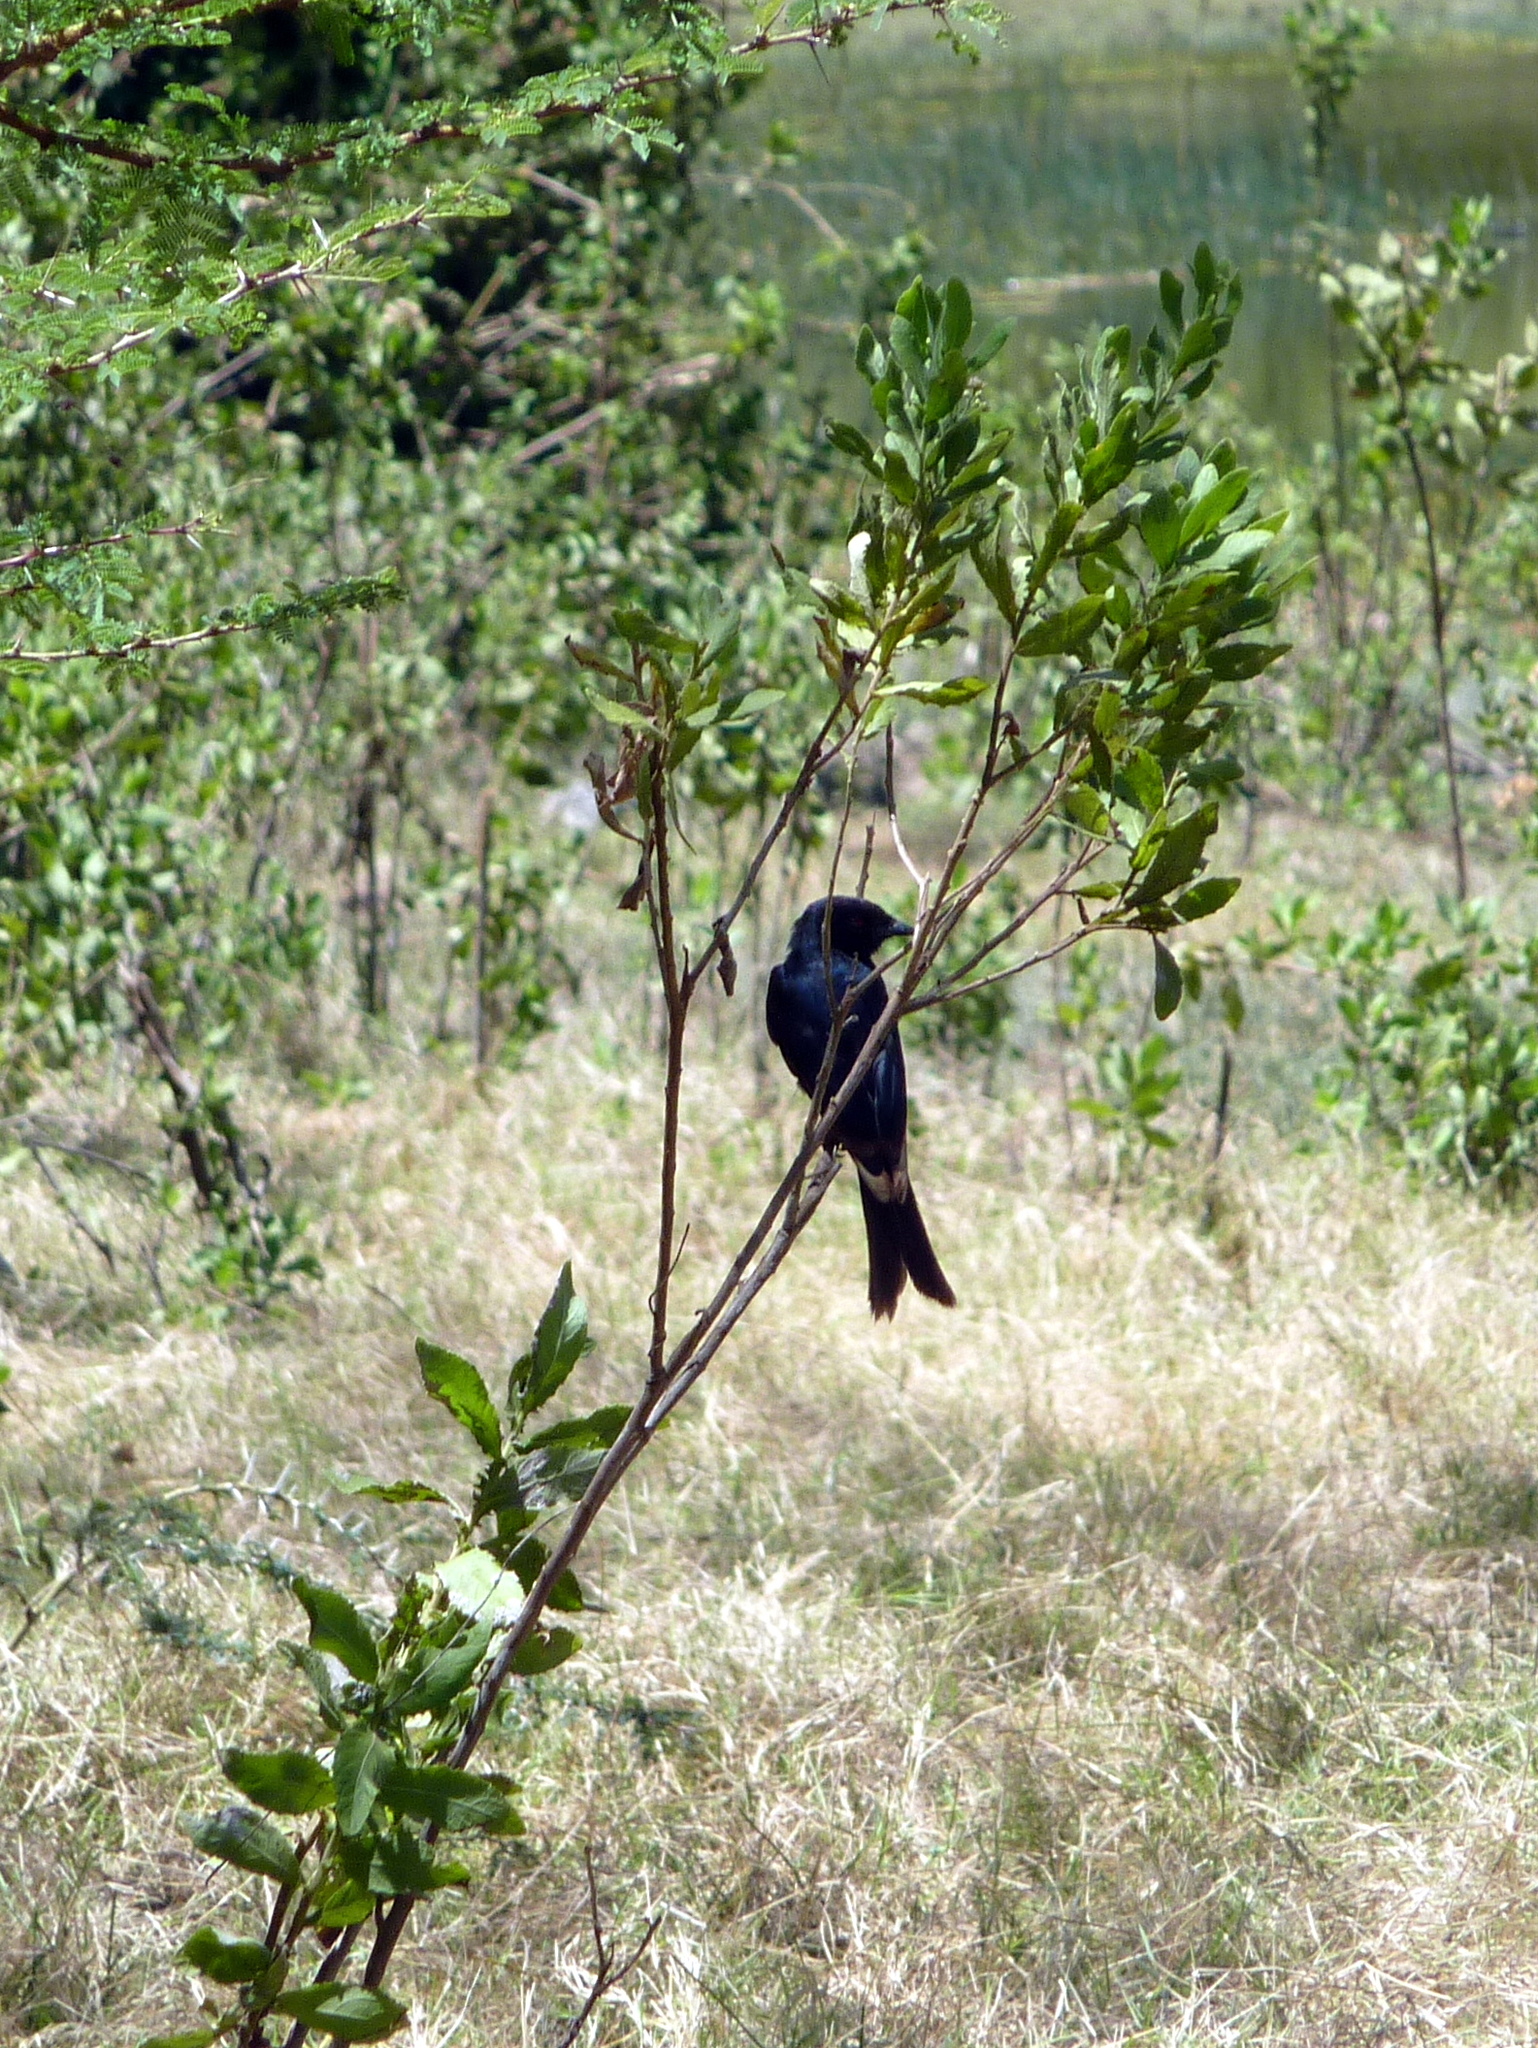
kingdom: Animalia
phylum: Chordata
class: Aves
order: Passeriformes
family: Dicruridae
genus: Dicrurus
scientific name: Dicrurus adsimilis
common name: Fork-tailed drongo
